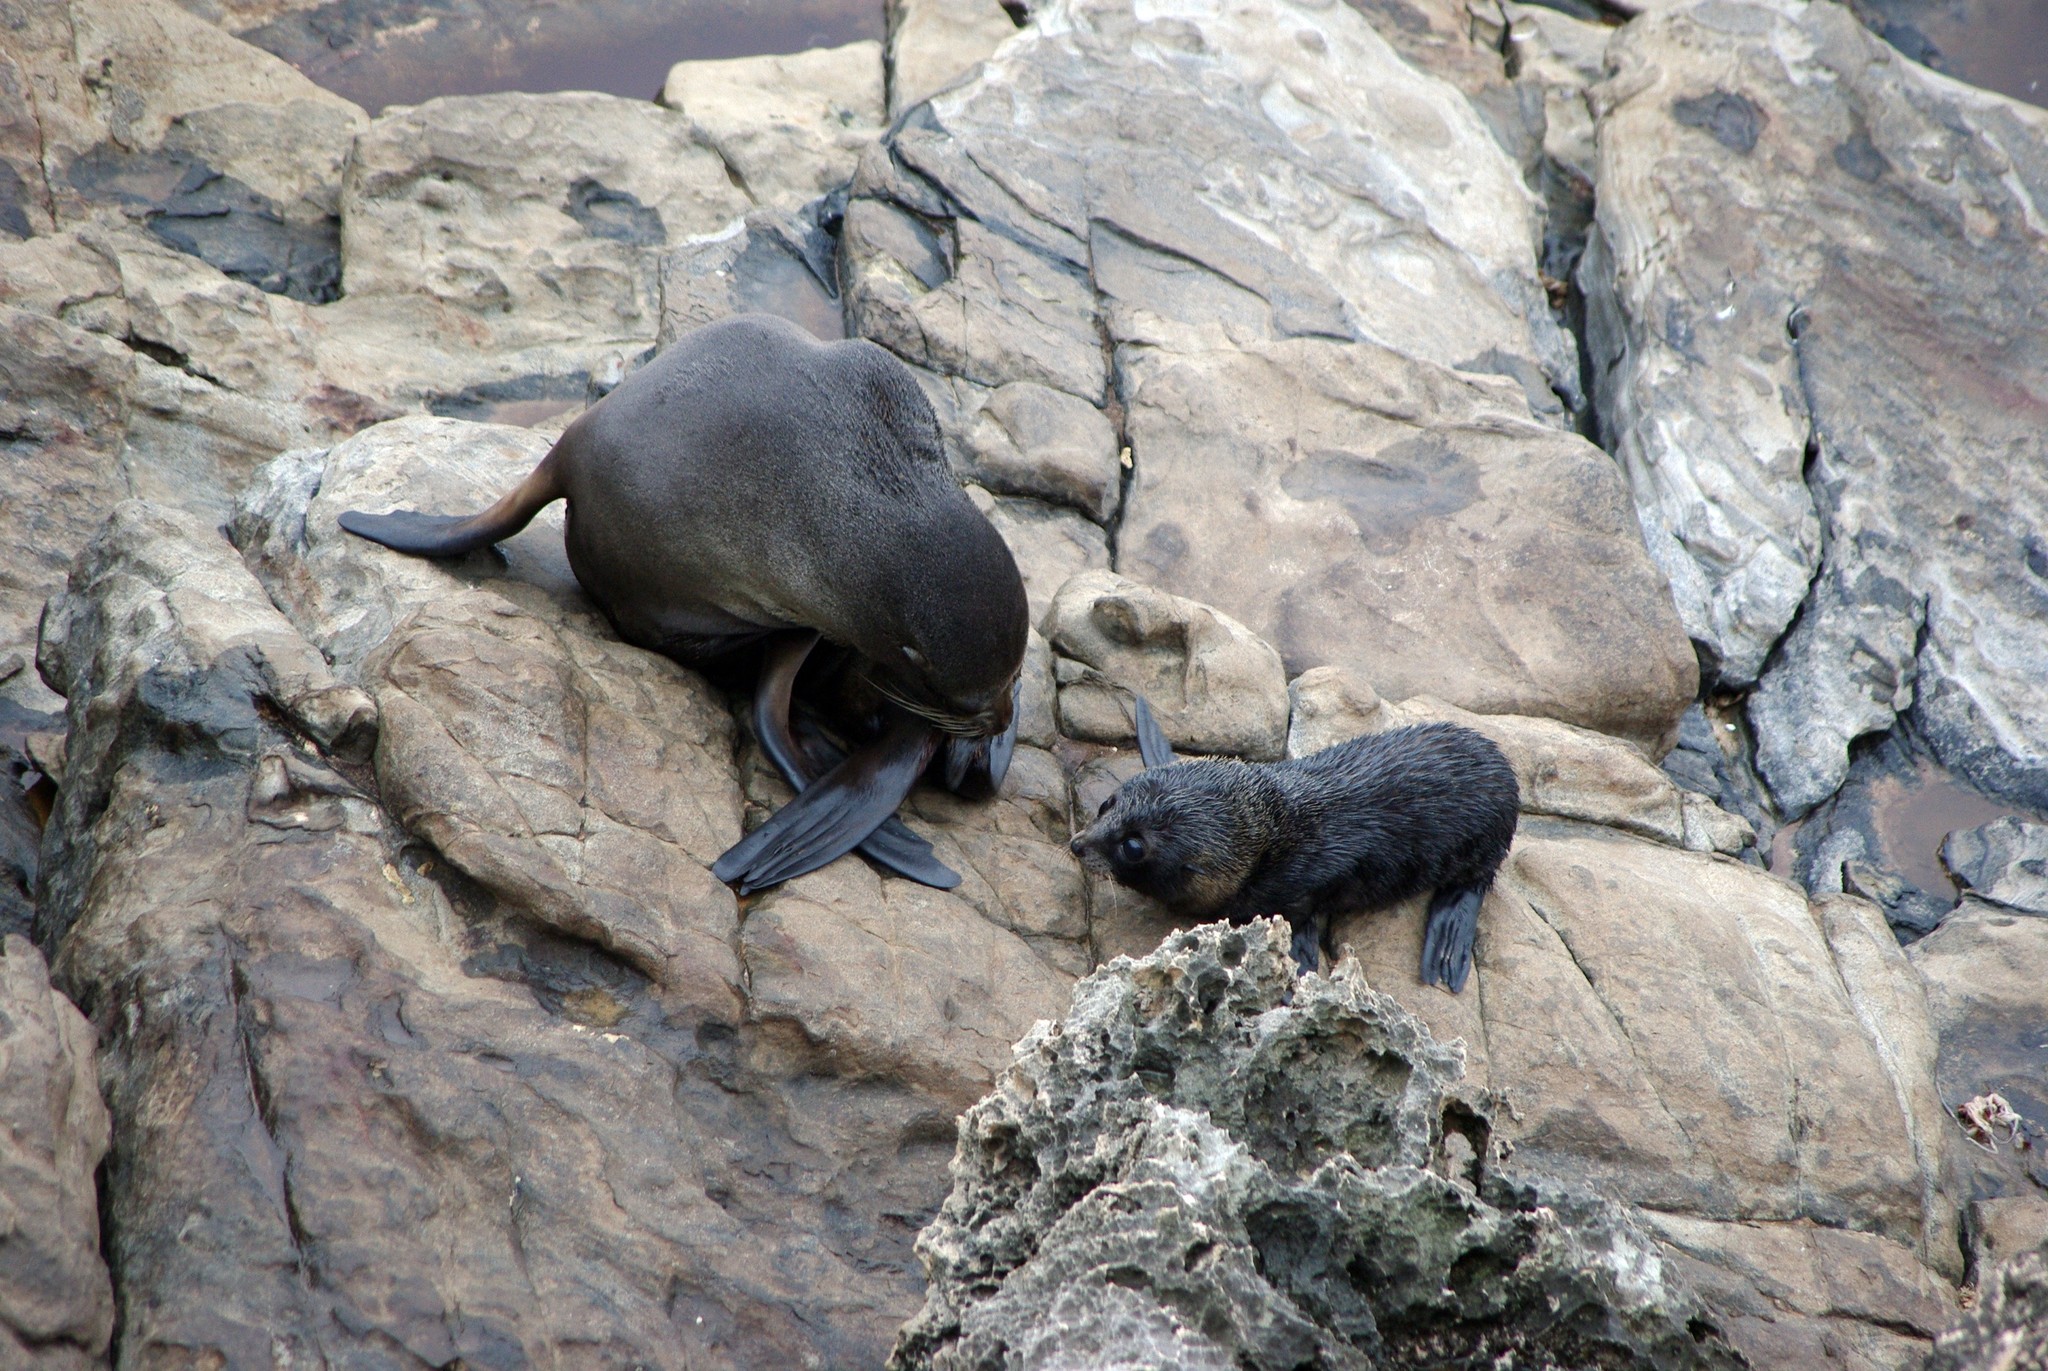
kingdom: Animalia
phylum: Chordata
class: Mammalia
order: Carnivora
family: Otariidae
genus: Arctocephalus
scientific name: Arctocephalus forsteri
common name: New zealand fur seal
